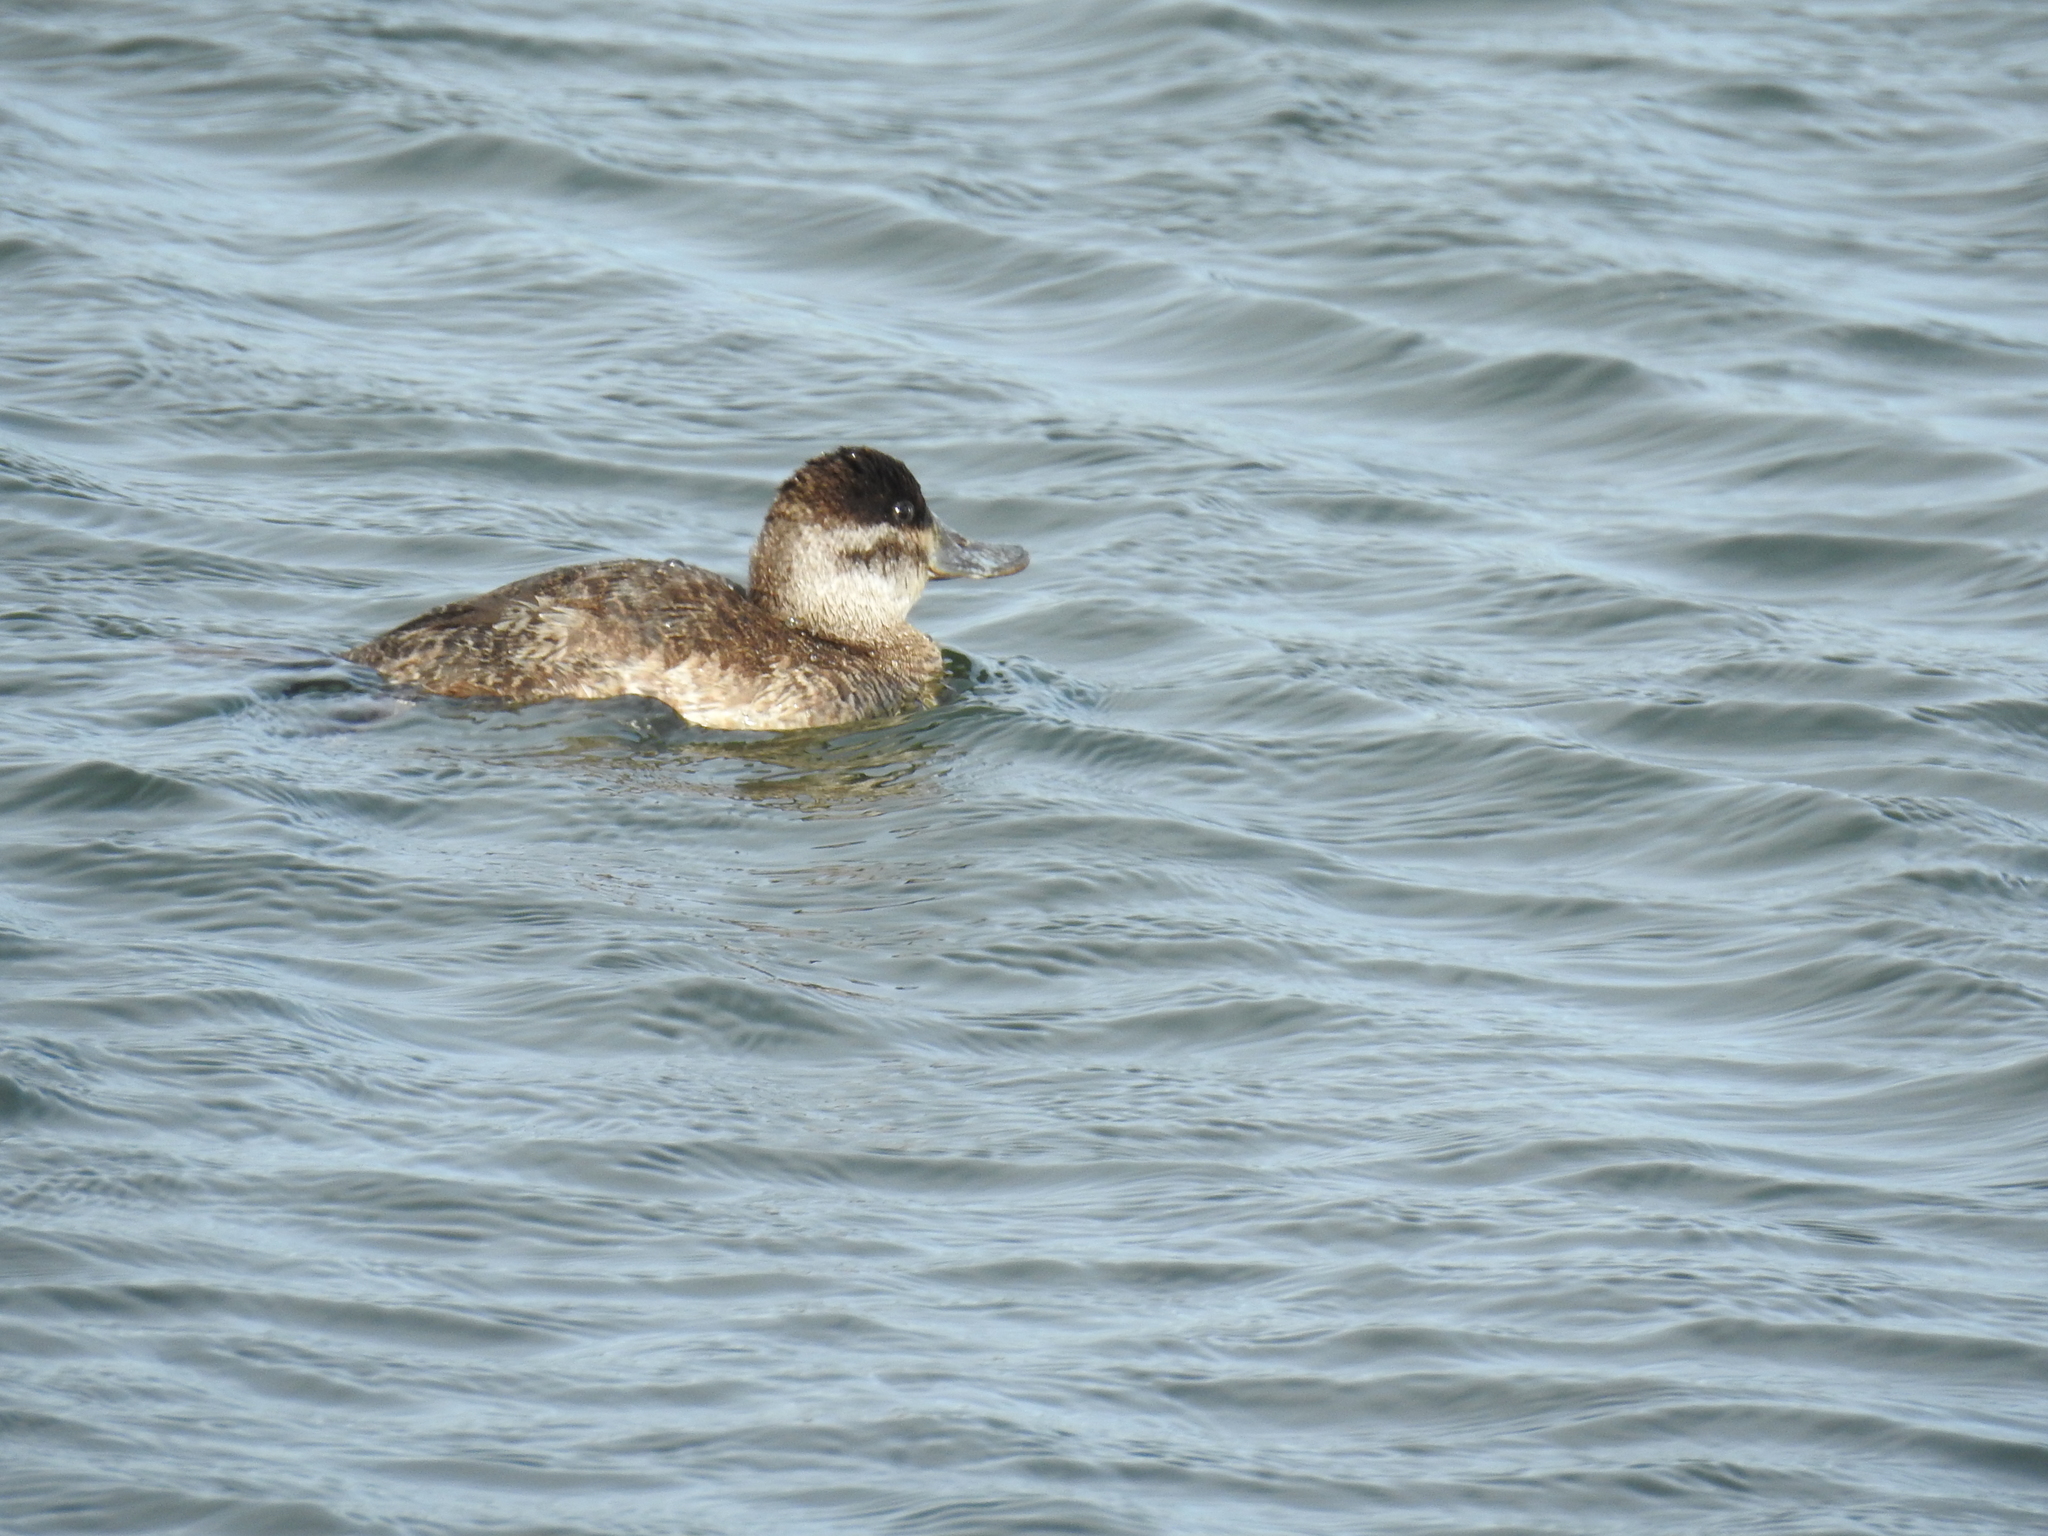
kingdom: Animalia
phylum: Chordata
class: Aves
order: Anseriformes
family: Anatidae
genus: Oxyura
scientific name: Oxyura jamaicensis
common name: Ruddy duck
